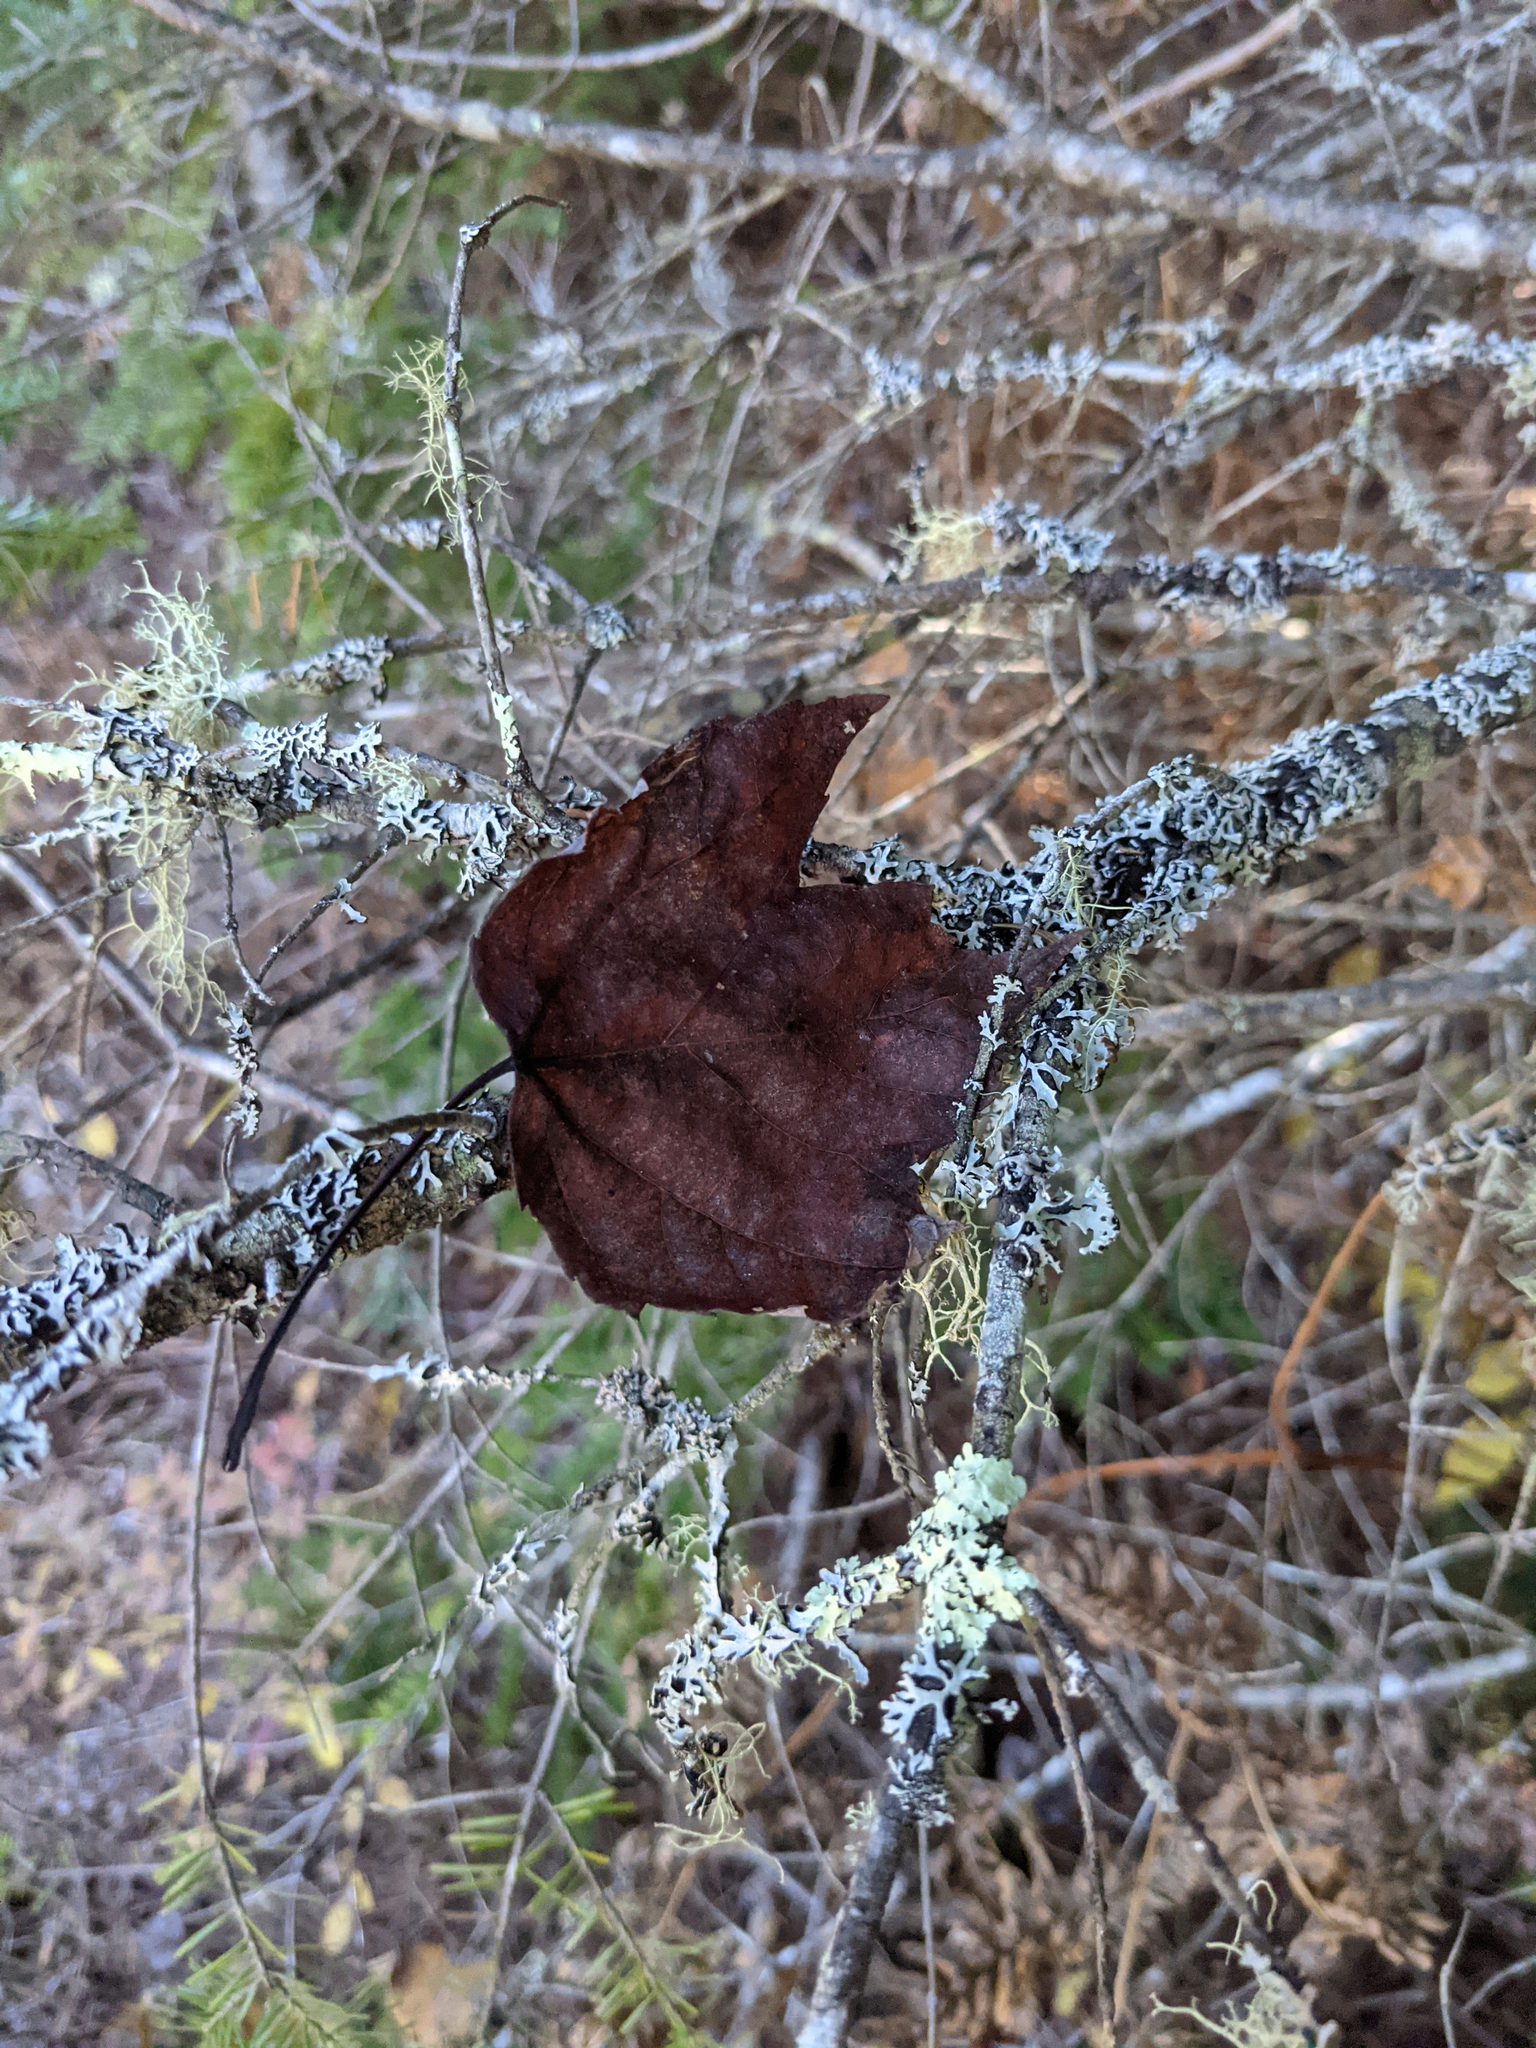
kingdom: Plantae
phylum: Tracheophyta
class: Magnoliopsida
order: Sapindales
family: Sapindaceae
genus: Acer
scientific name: Acer rubrum
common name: Red maple
